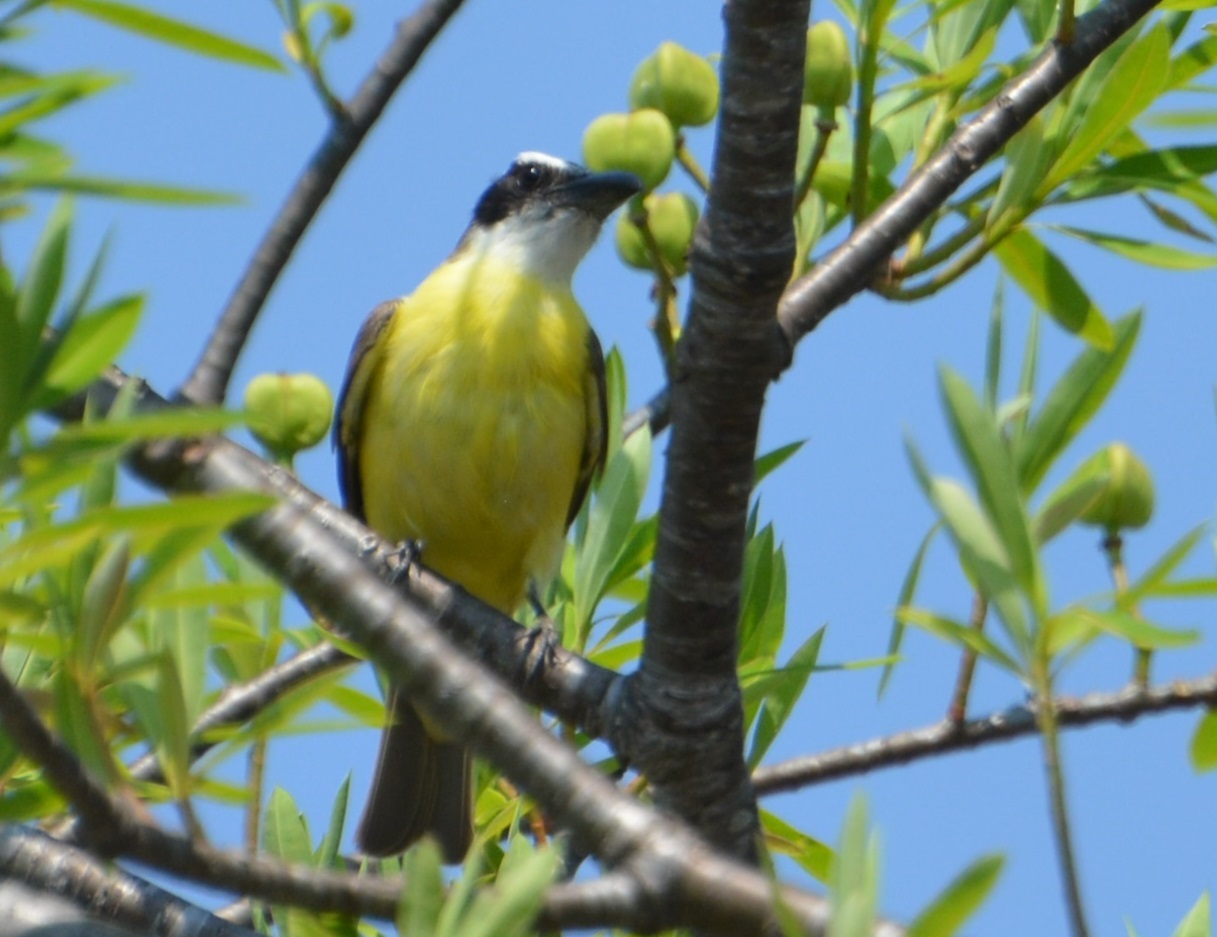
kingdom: Animalia
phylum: Chordata
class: Aves
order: Passeriformes
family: Tyrannidae
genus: Megarynchus
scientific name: Megarynchus pitangua
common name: Boat-billed flycatcher
